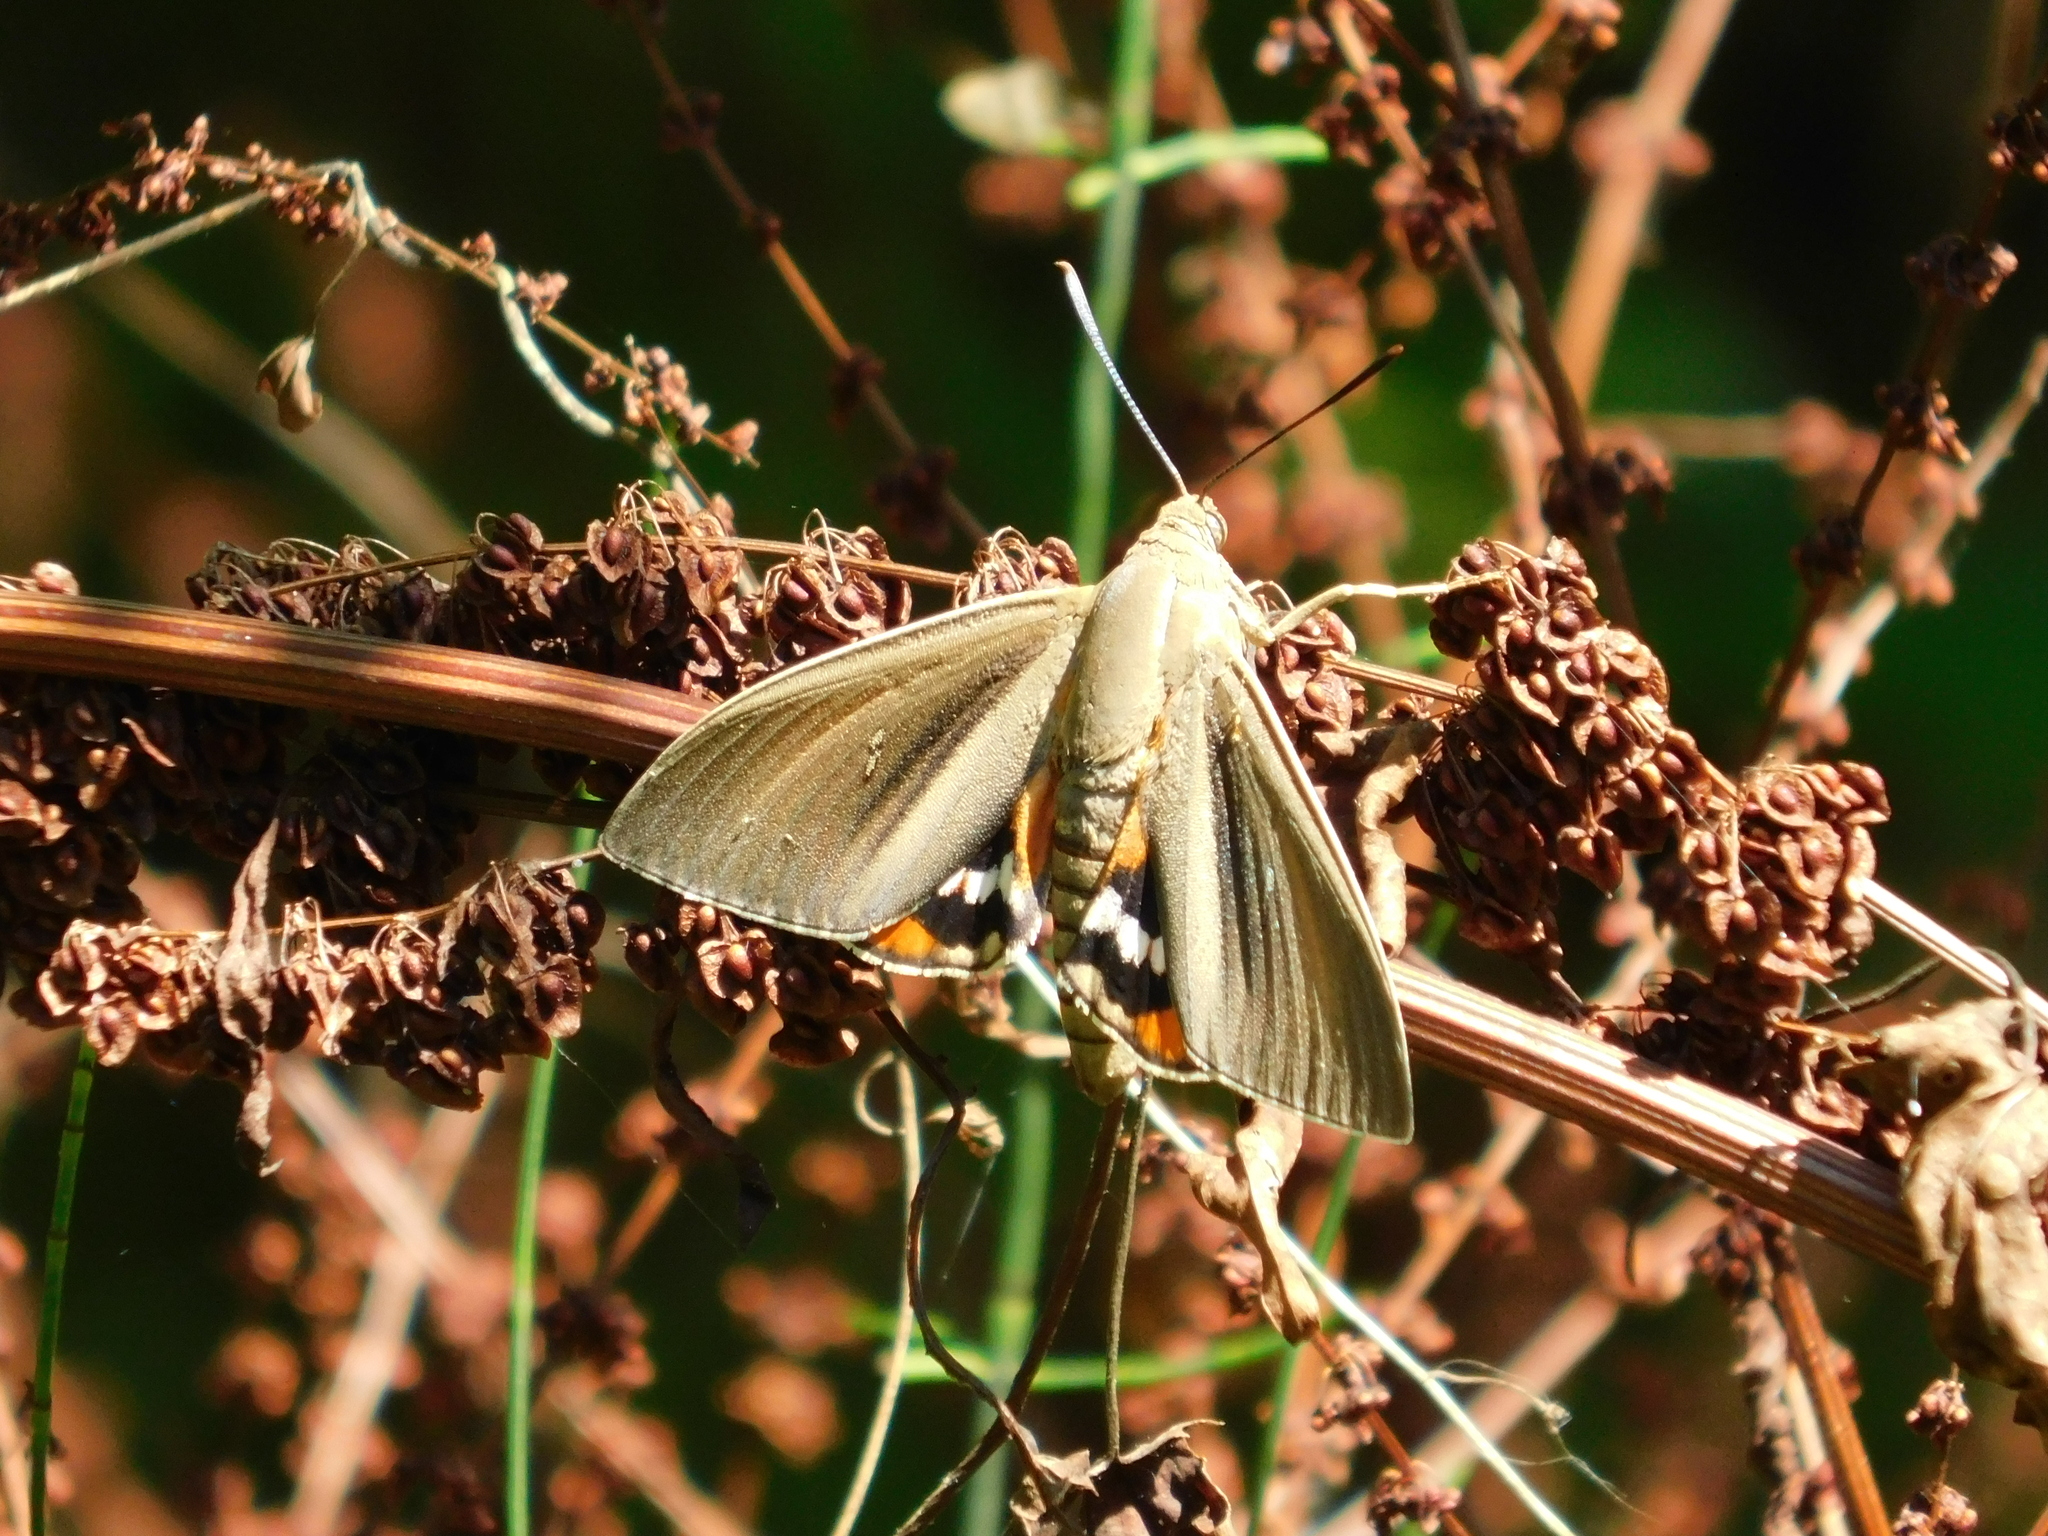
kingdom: Animalia
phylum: Arthropoda
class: Insecta
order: Lepidoptera
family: Castniidae
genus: Paysandisia
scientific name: Paysandisia archon
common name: Palm moth
